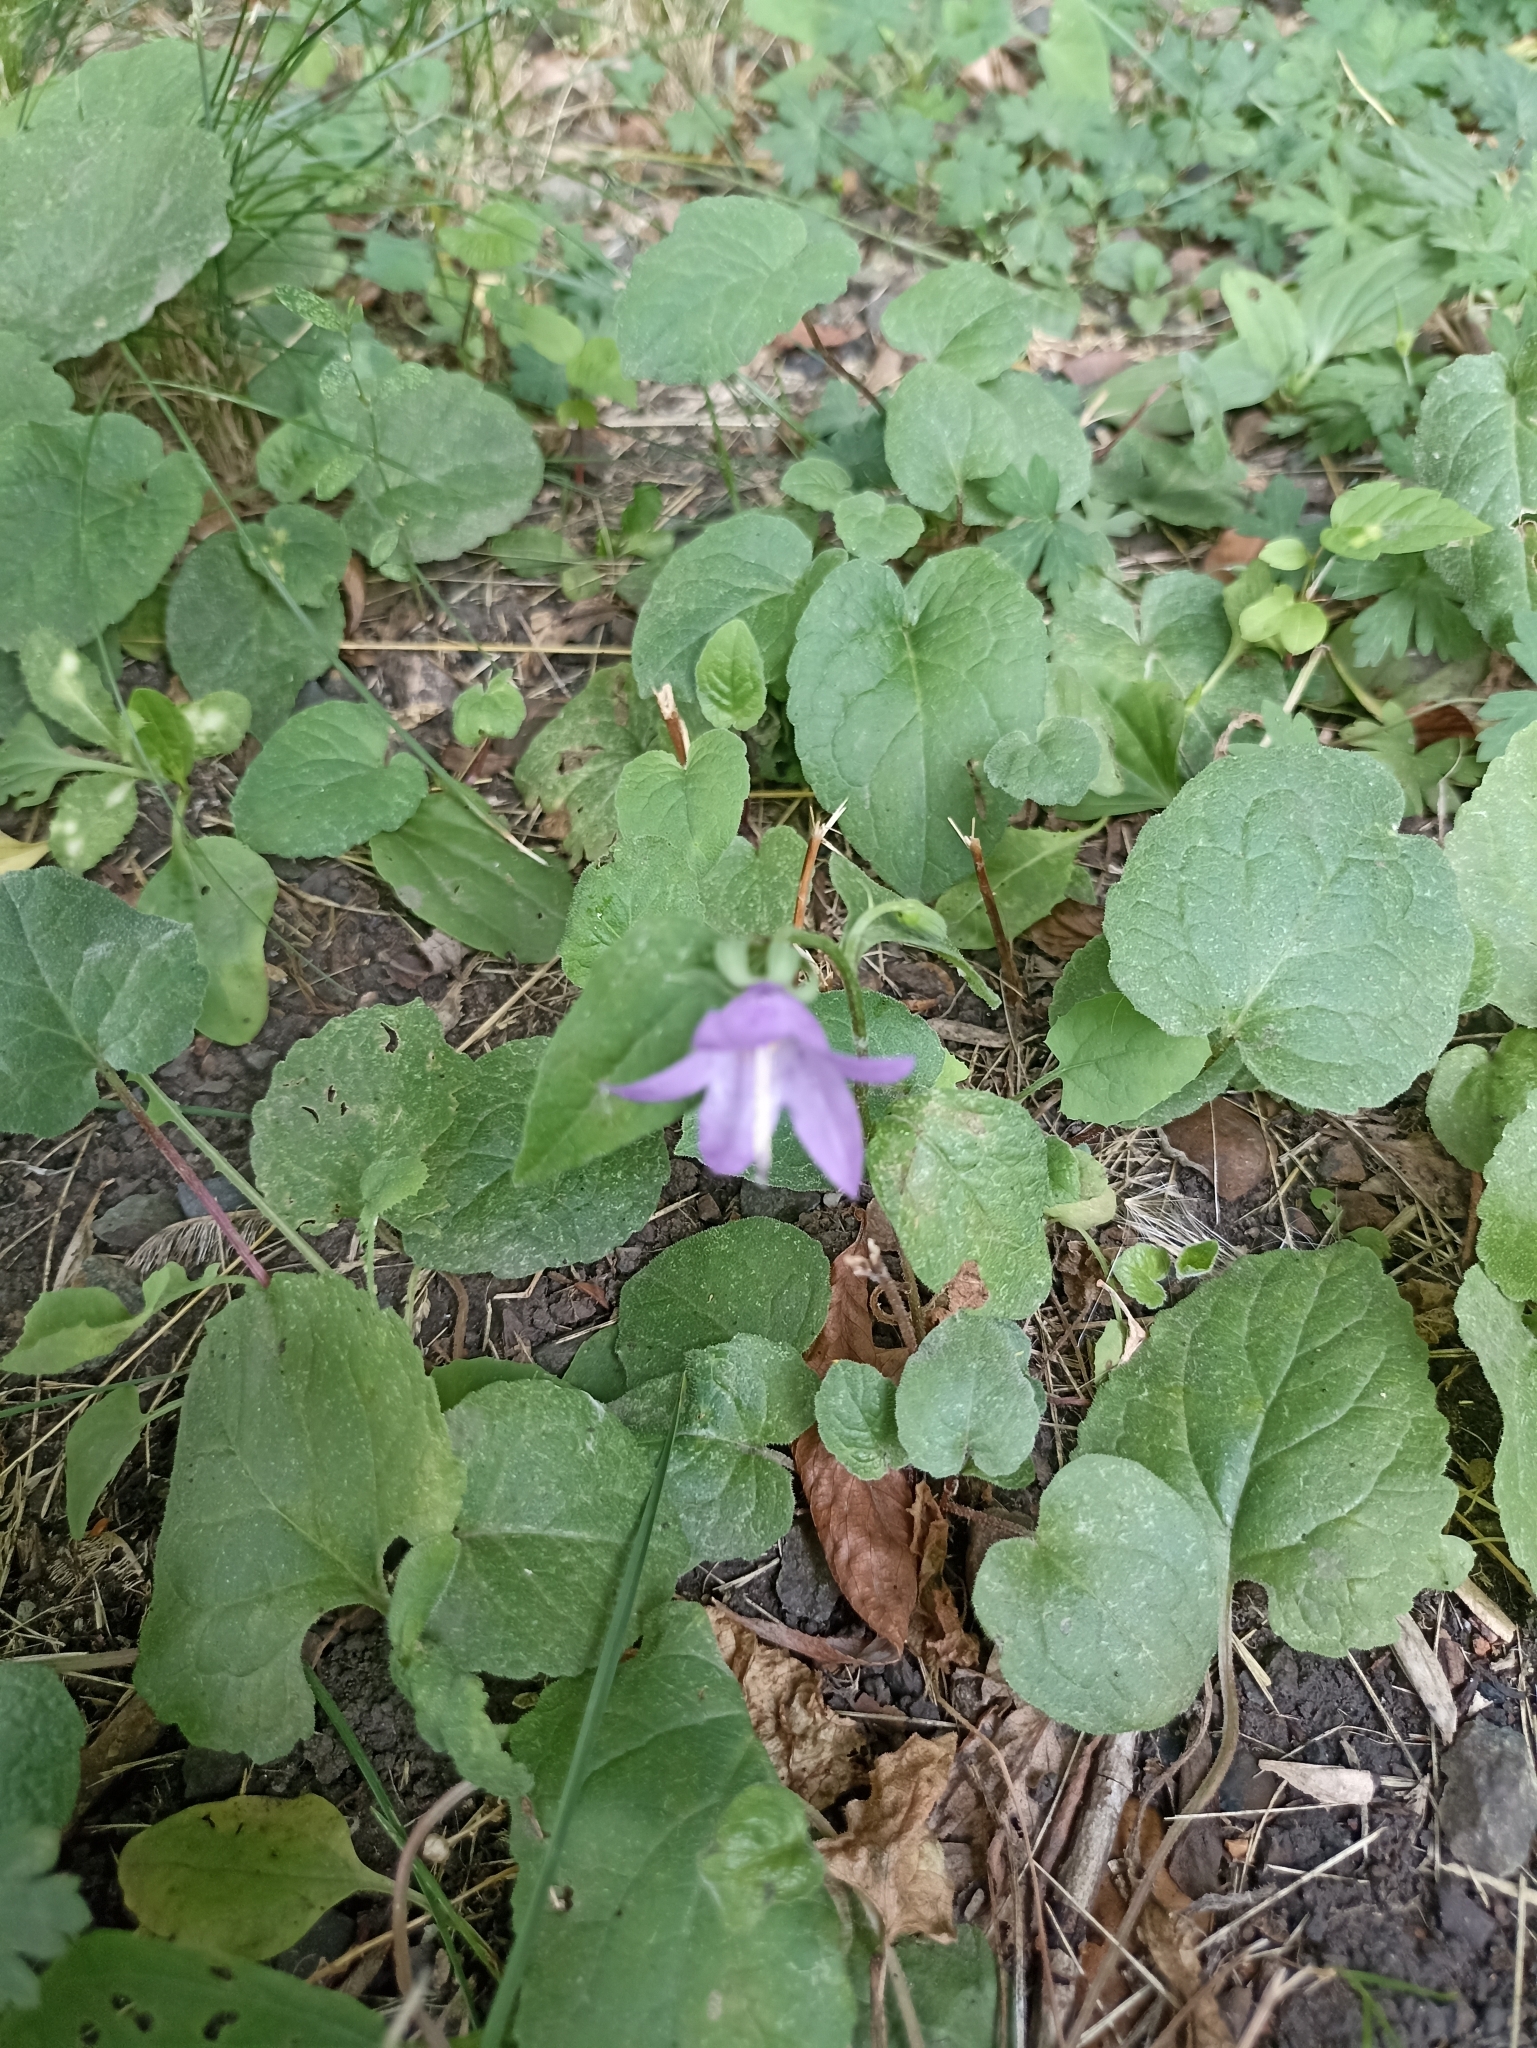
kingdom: Plantae
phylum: Tracheophyta
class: Magnoliopsida
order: Asterales
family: Campanulaceae
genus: Campanula
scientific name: Campanula rapunculoides
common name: Creeping bellflower
